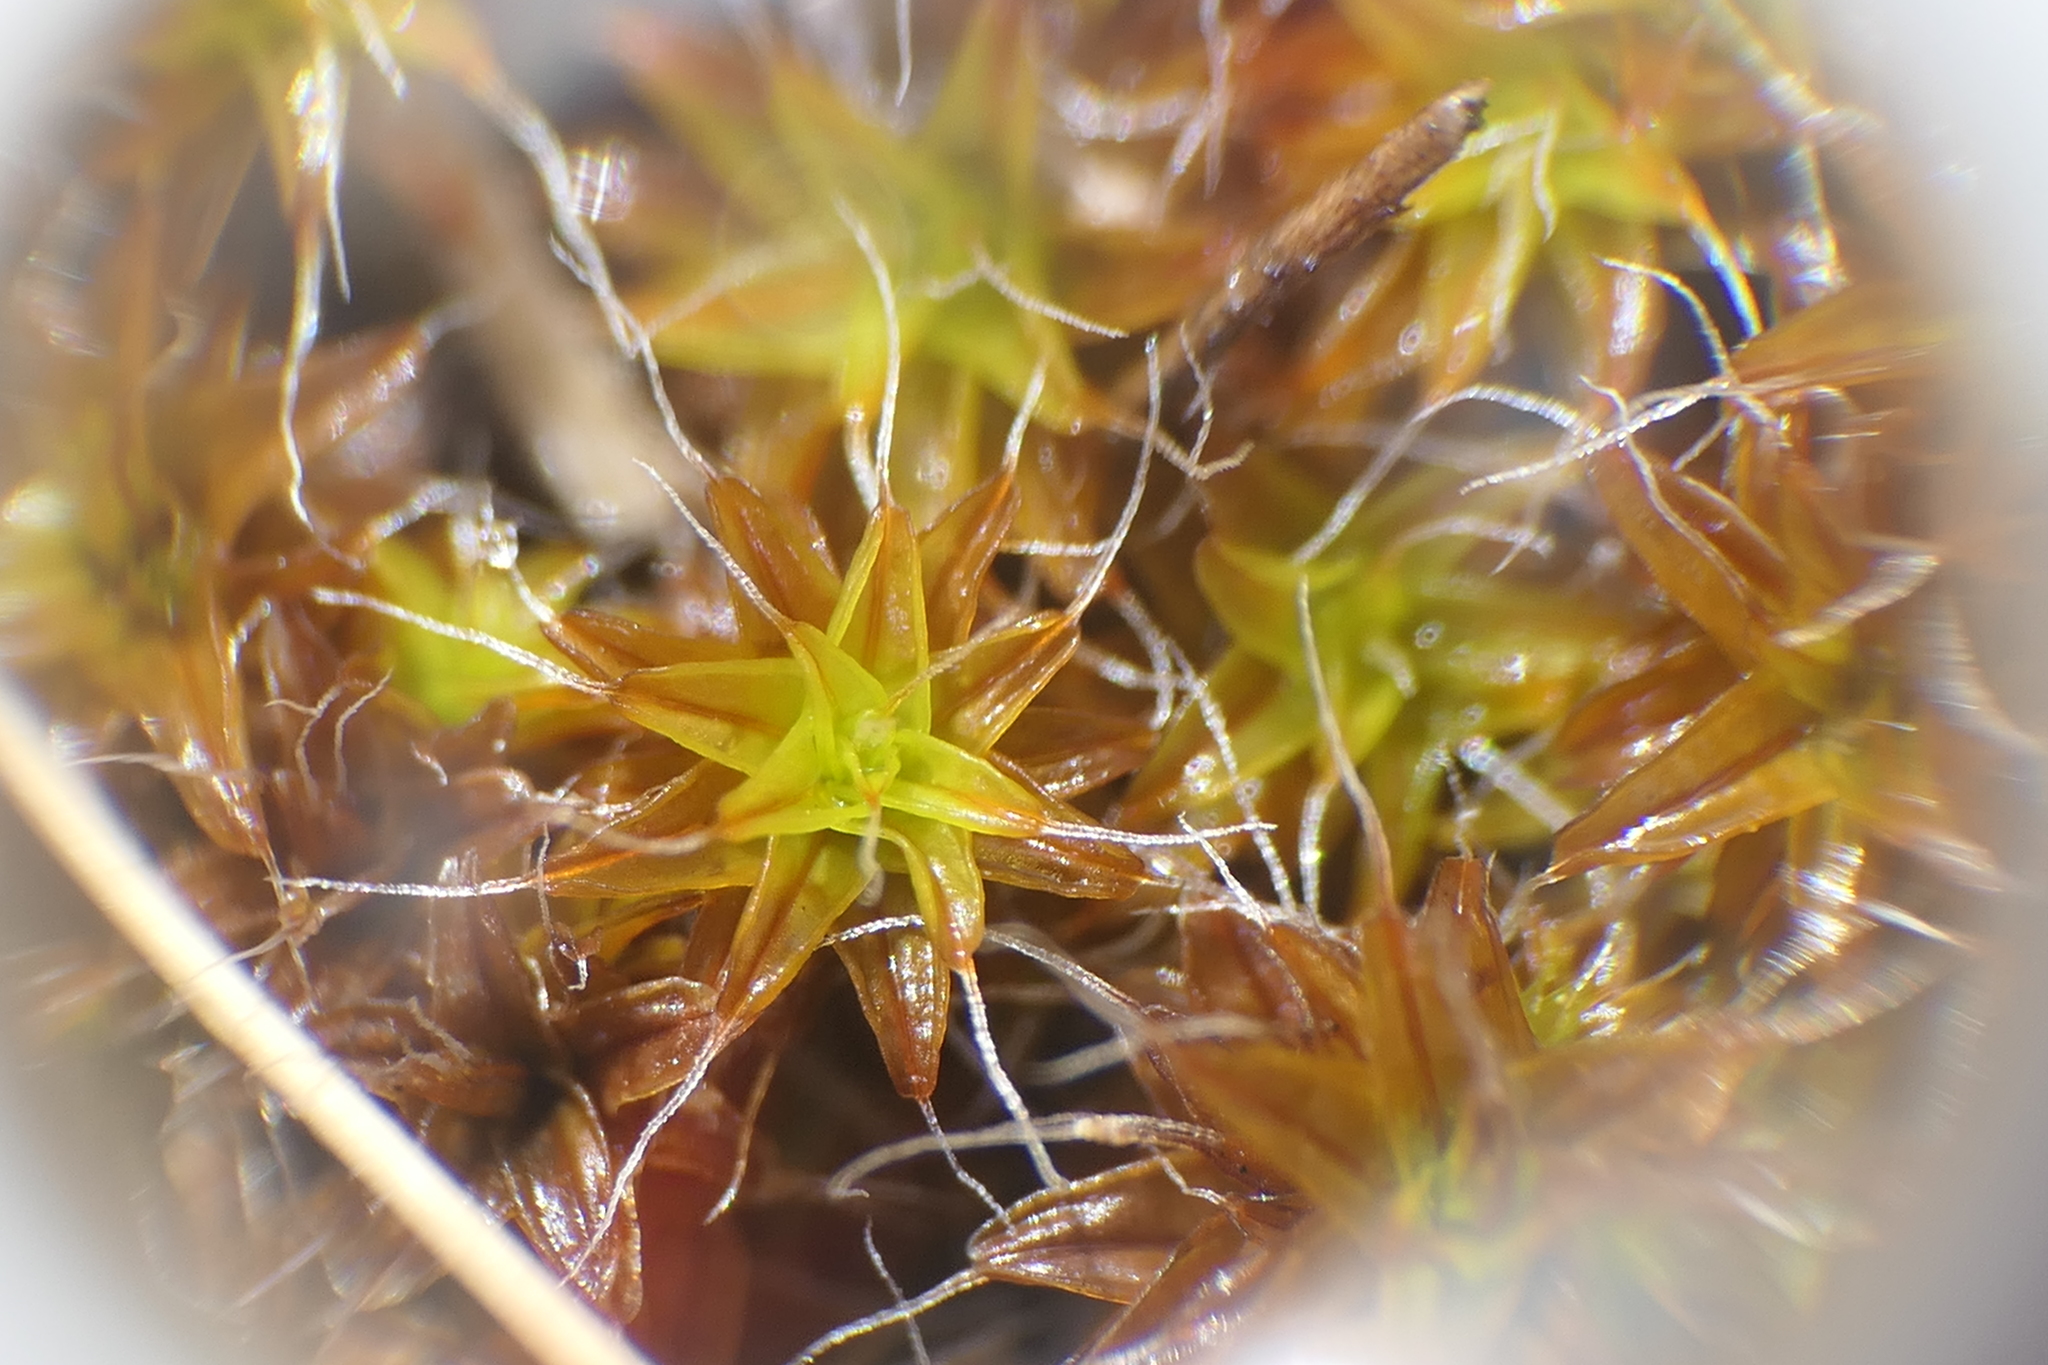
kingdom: Plantae
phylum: Bryophyta
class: Bryopsida
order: Pottiales
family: Pottiaceae
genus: Syntrichia
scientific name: Syntrichia ruralis
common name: Sidewalk screw moss
